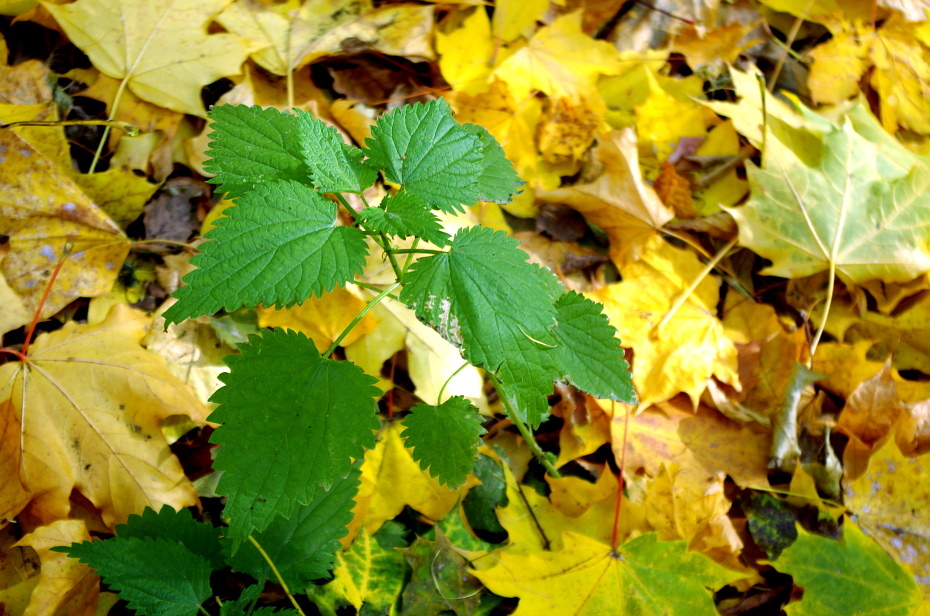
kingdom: Plantae
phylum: Tracheophyta
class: Magnoliopsida
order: Rosales
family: Urticaceae
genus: Urtica
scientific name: Urtica dioica
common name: Common nettle
